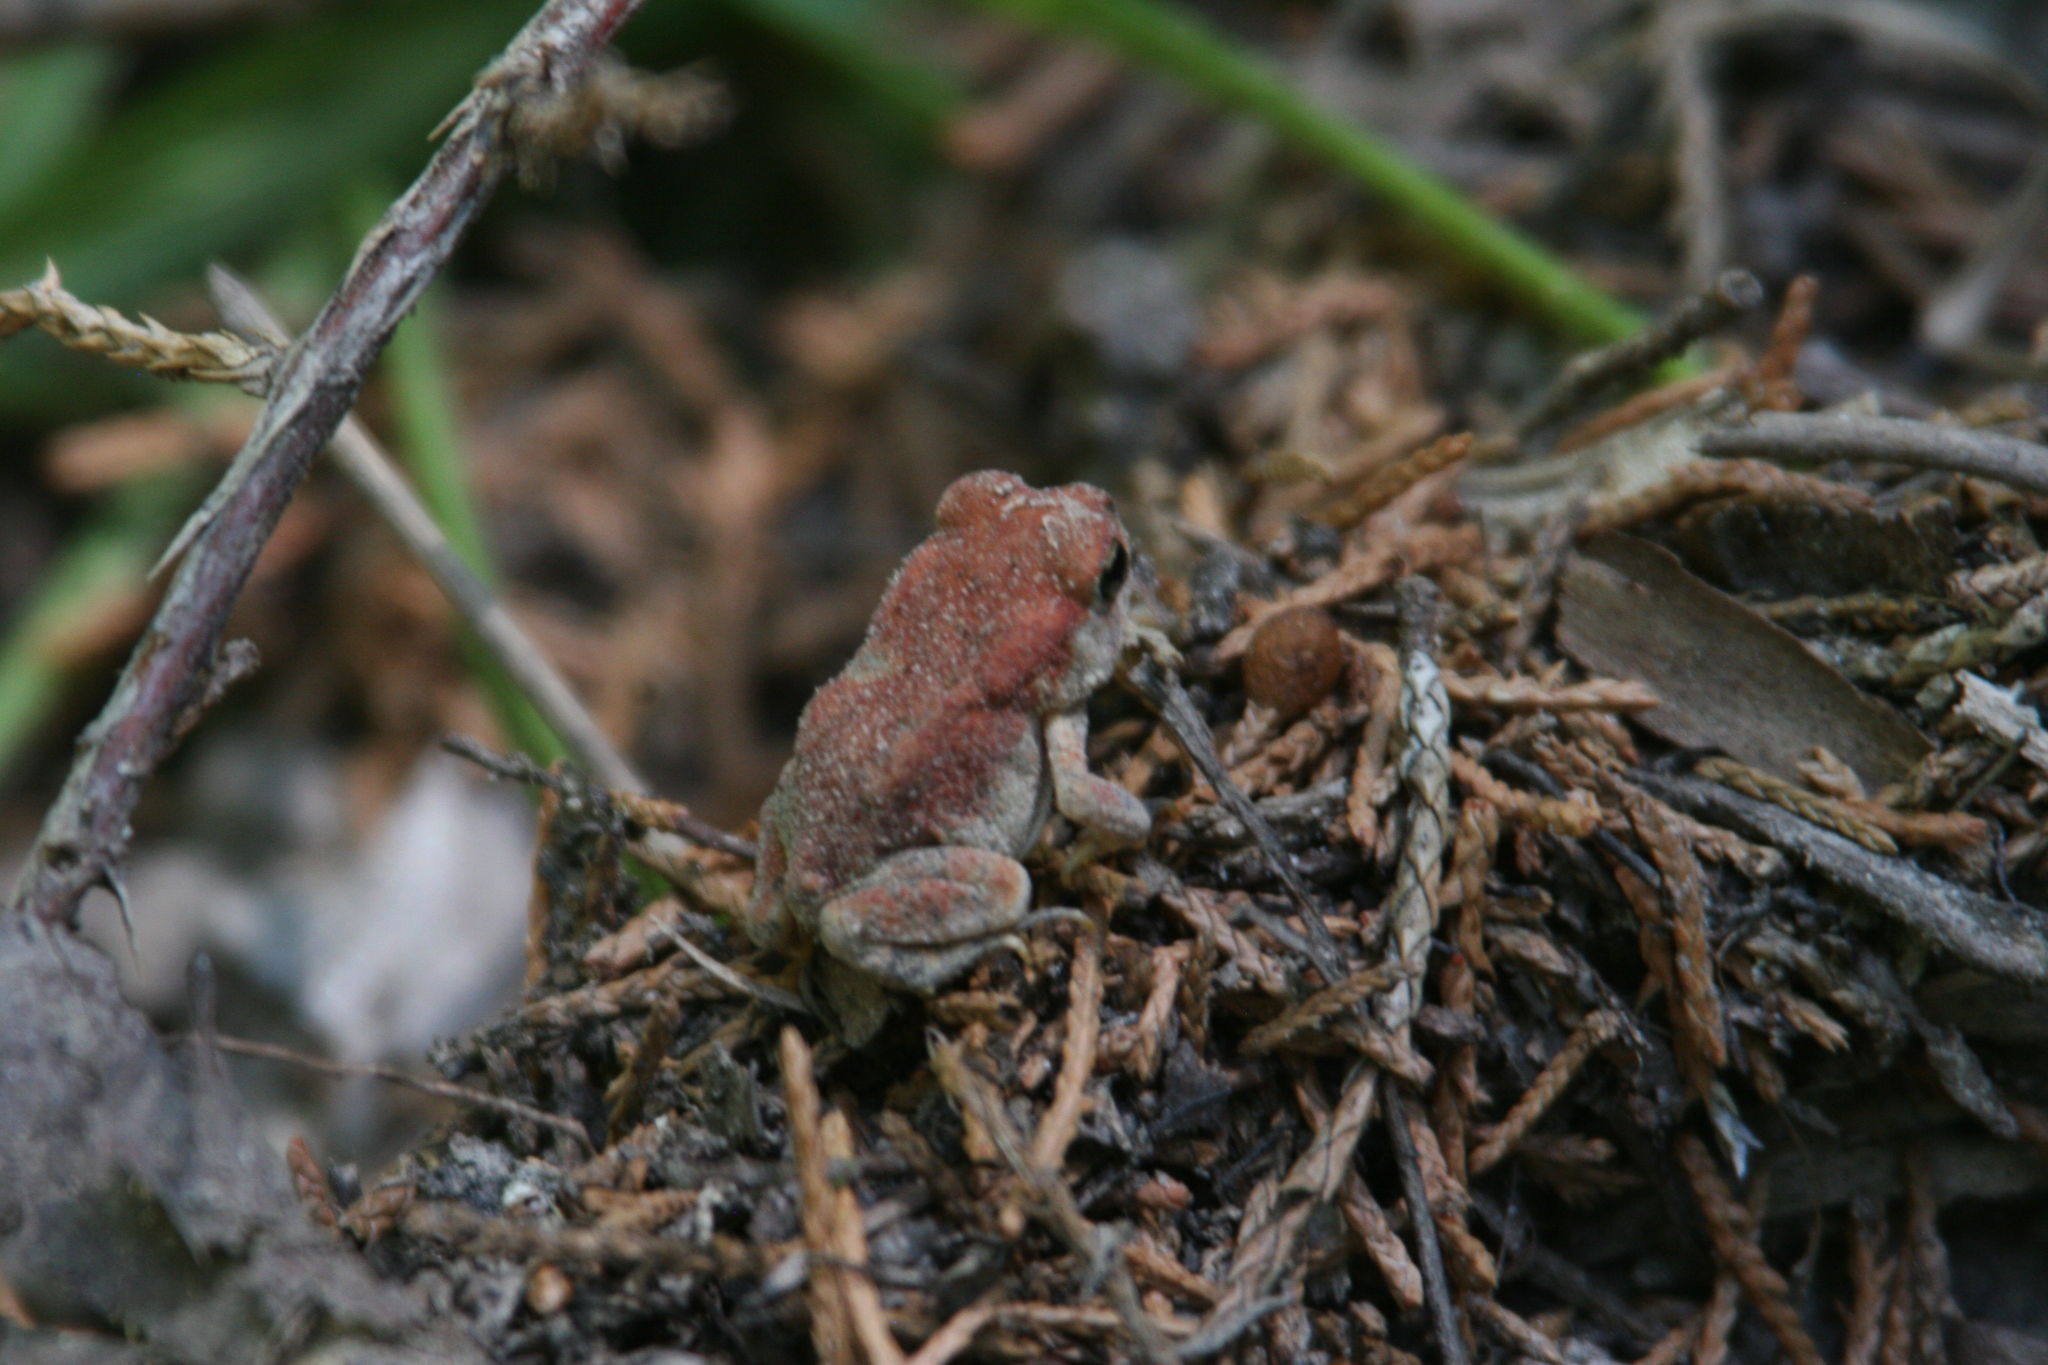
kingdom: Animalia
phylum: Chordata
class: Amphibia
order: Anura
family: Bufonidae
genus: Anaxyrus
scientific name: Anaxyrus
